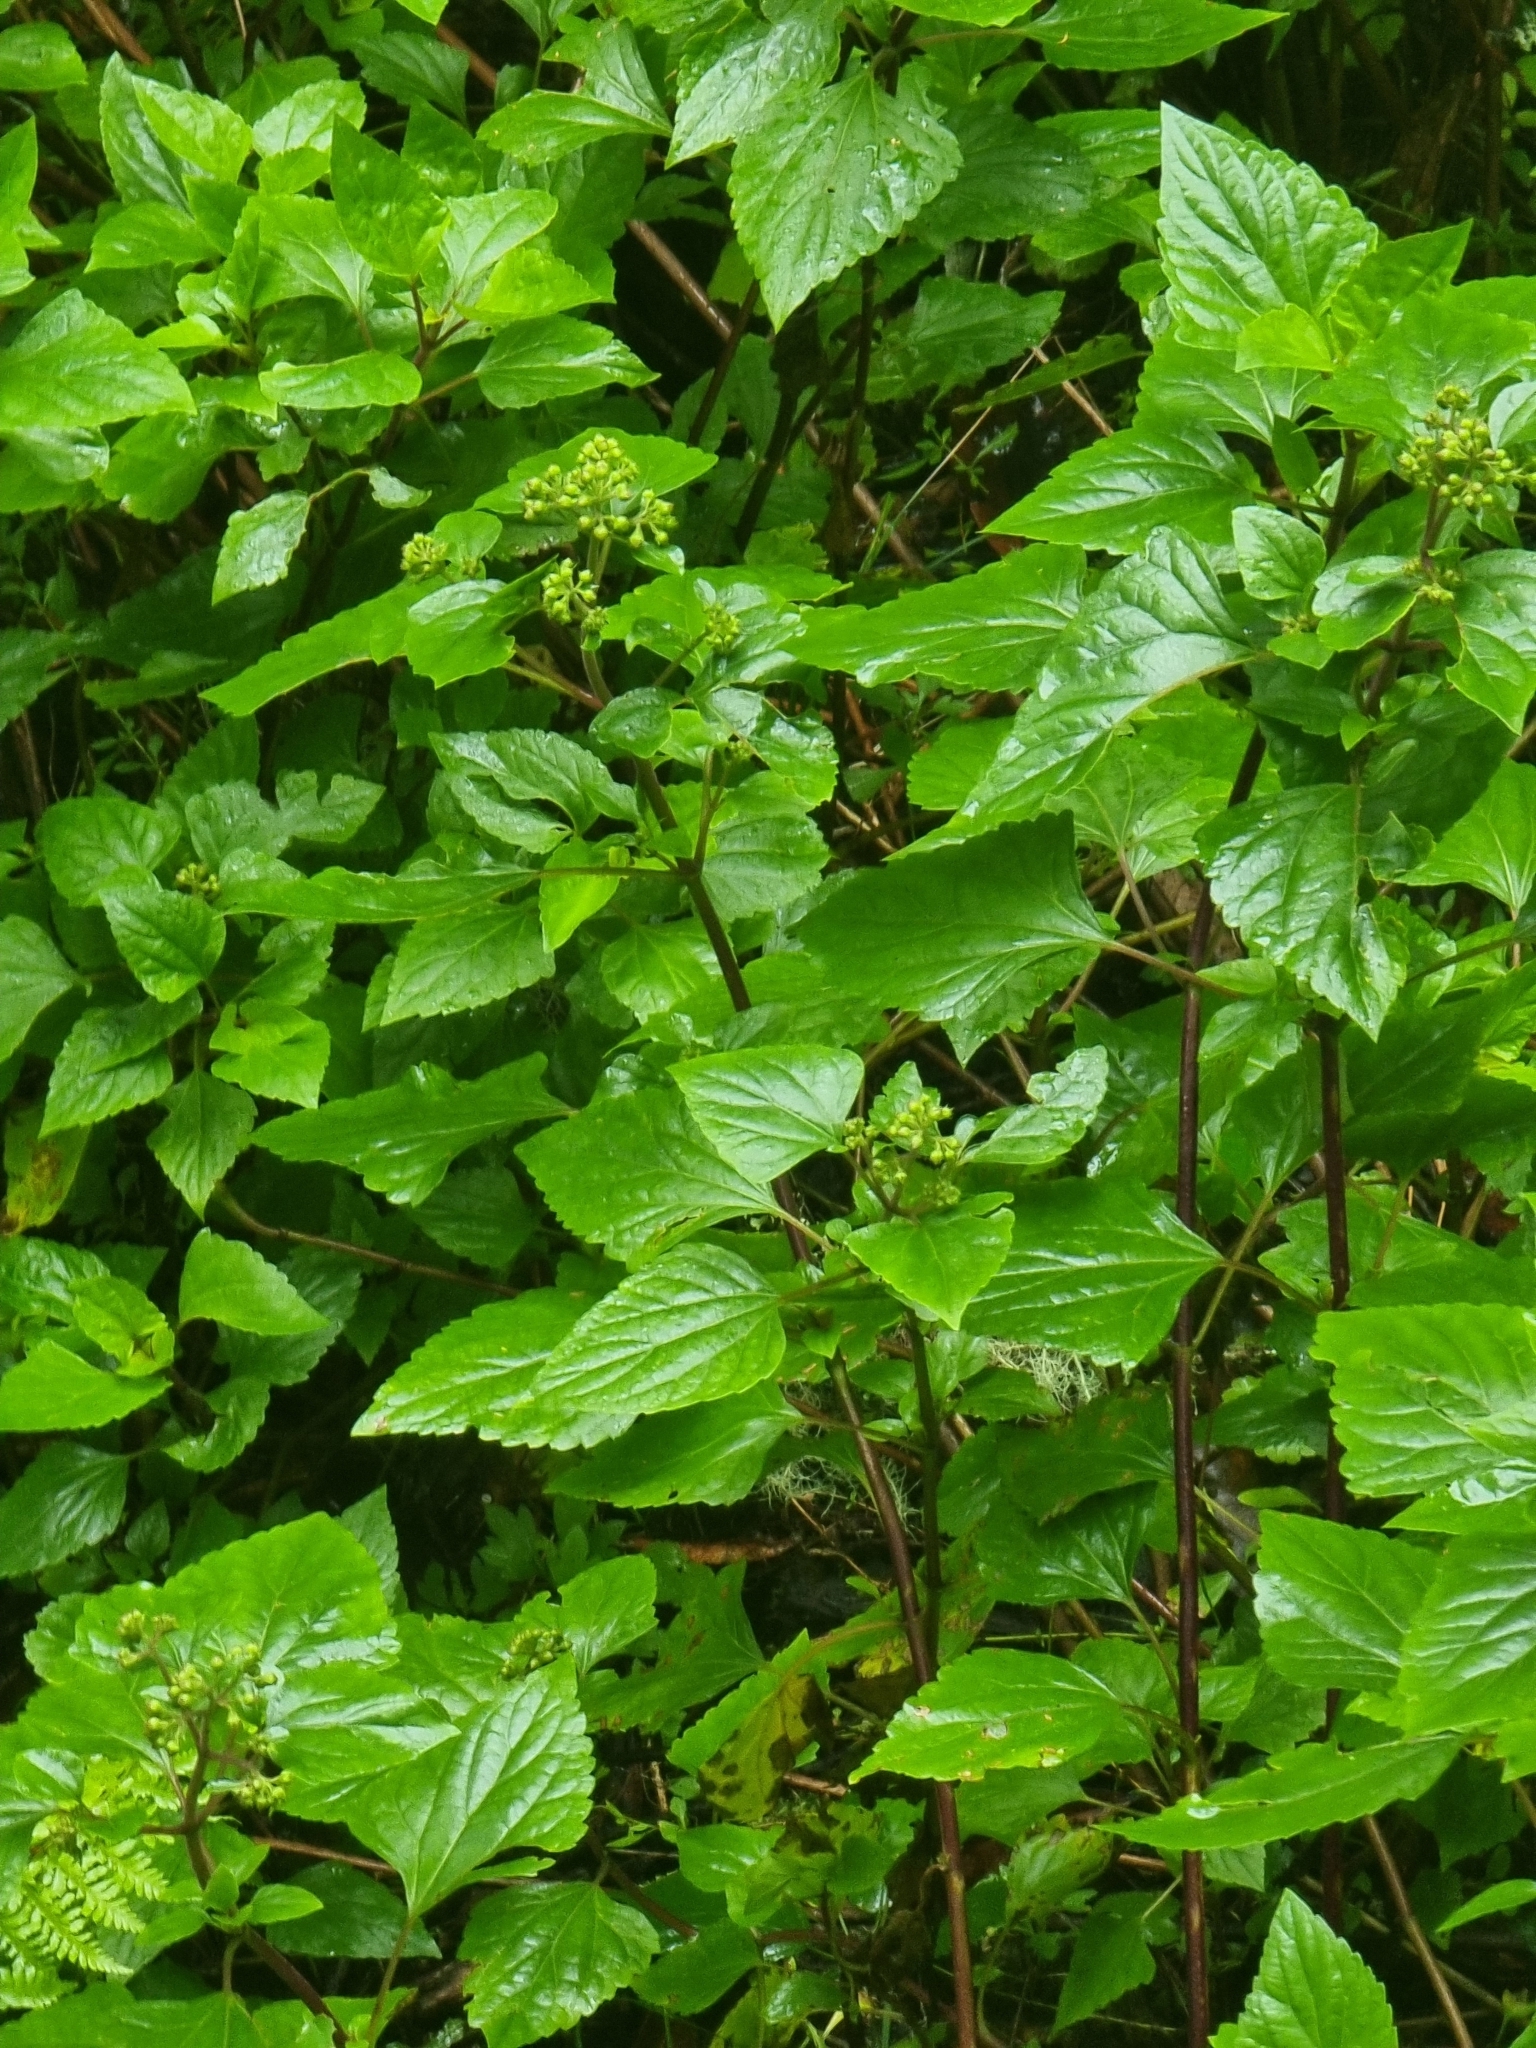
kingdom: Plantae
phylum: Tracheophyta
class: Magnoliopsida
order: Asterales
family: Asteraceae
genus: Ageratina
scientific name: Ageratina adenophora
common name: Sticky snakeroot
